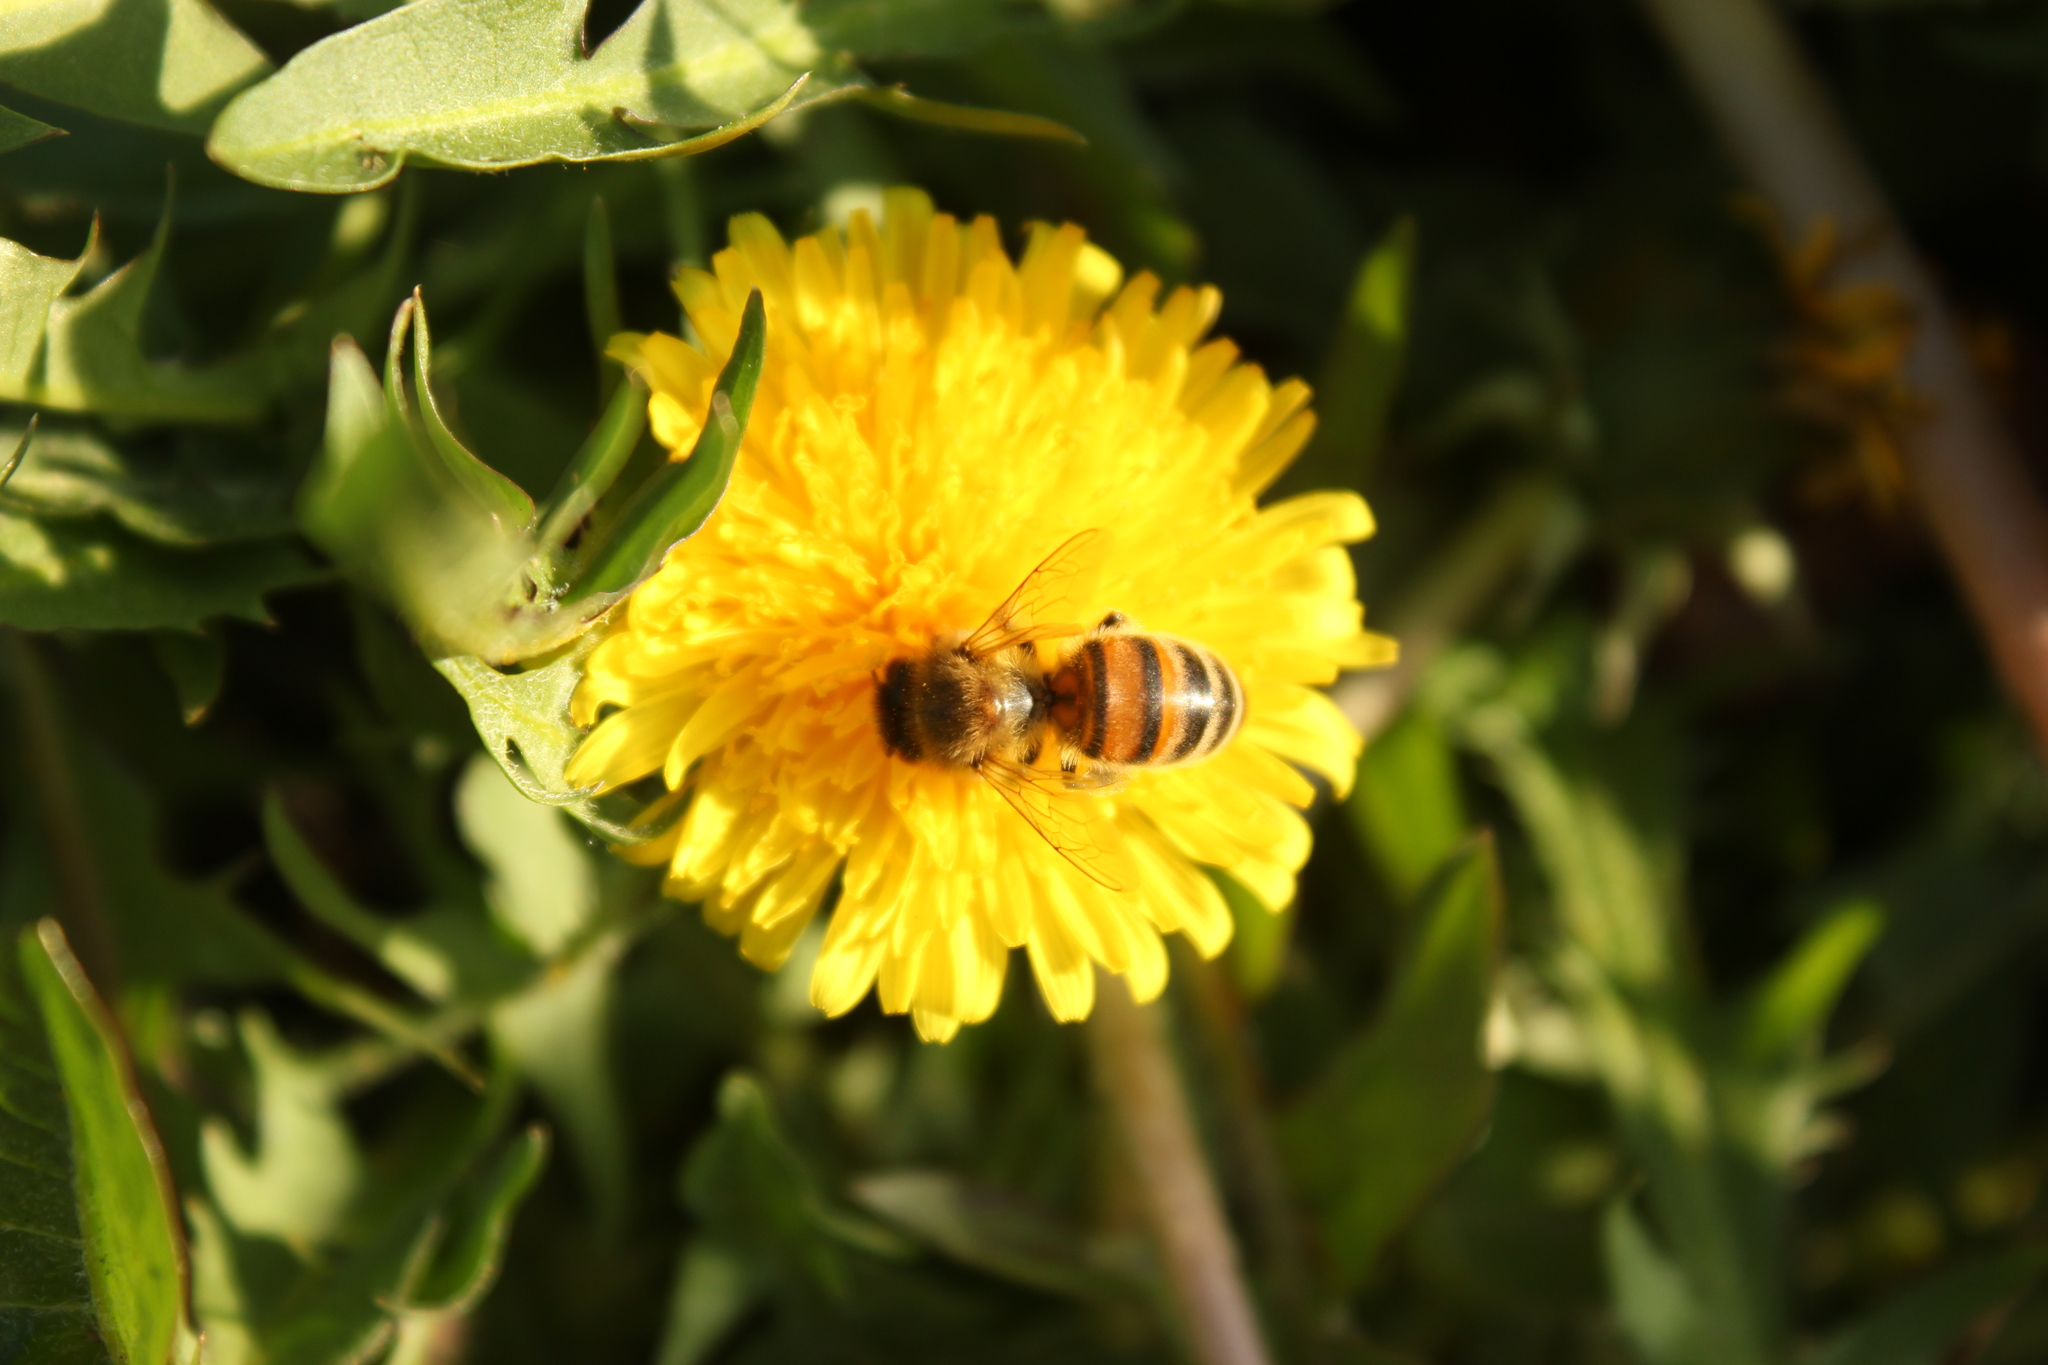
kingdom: Animalia
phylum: Arthropoda
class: Insecta
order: Hymenoptera
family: Apidae
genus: Apis
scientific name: Apis mellifera
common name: Honey bee
